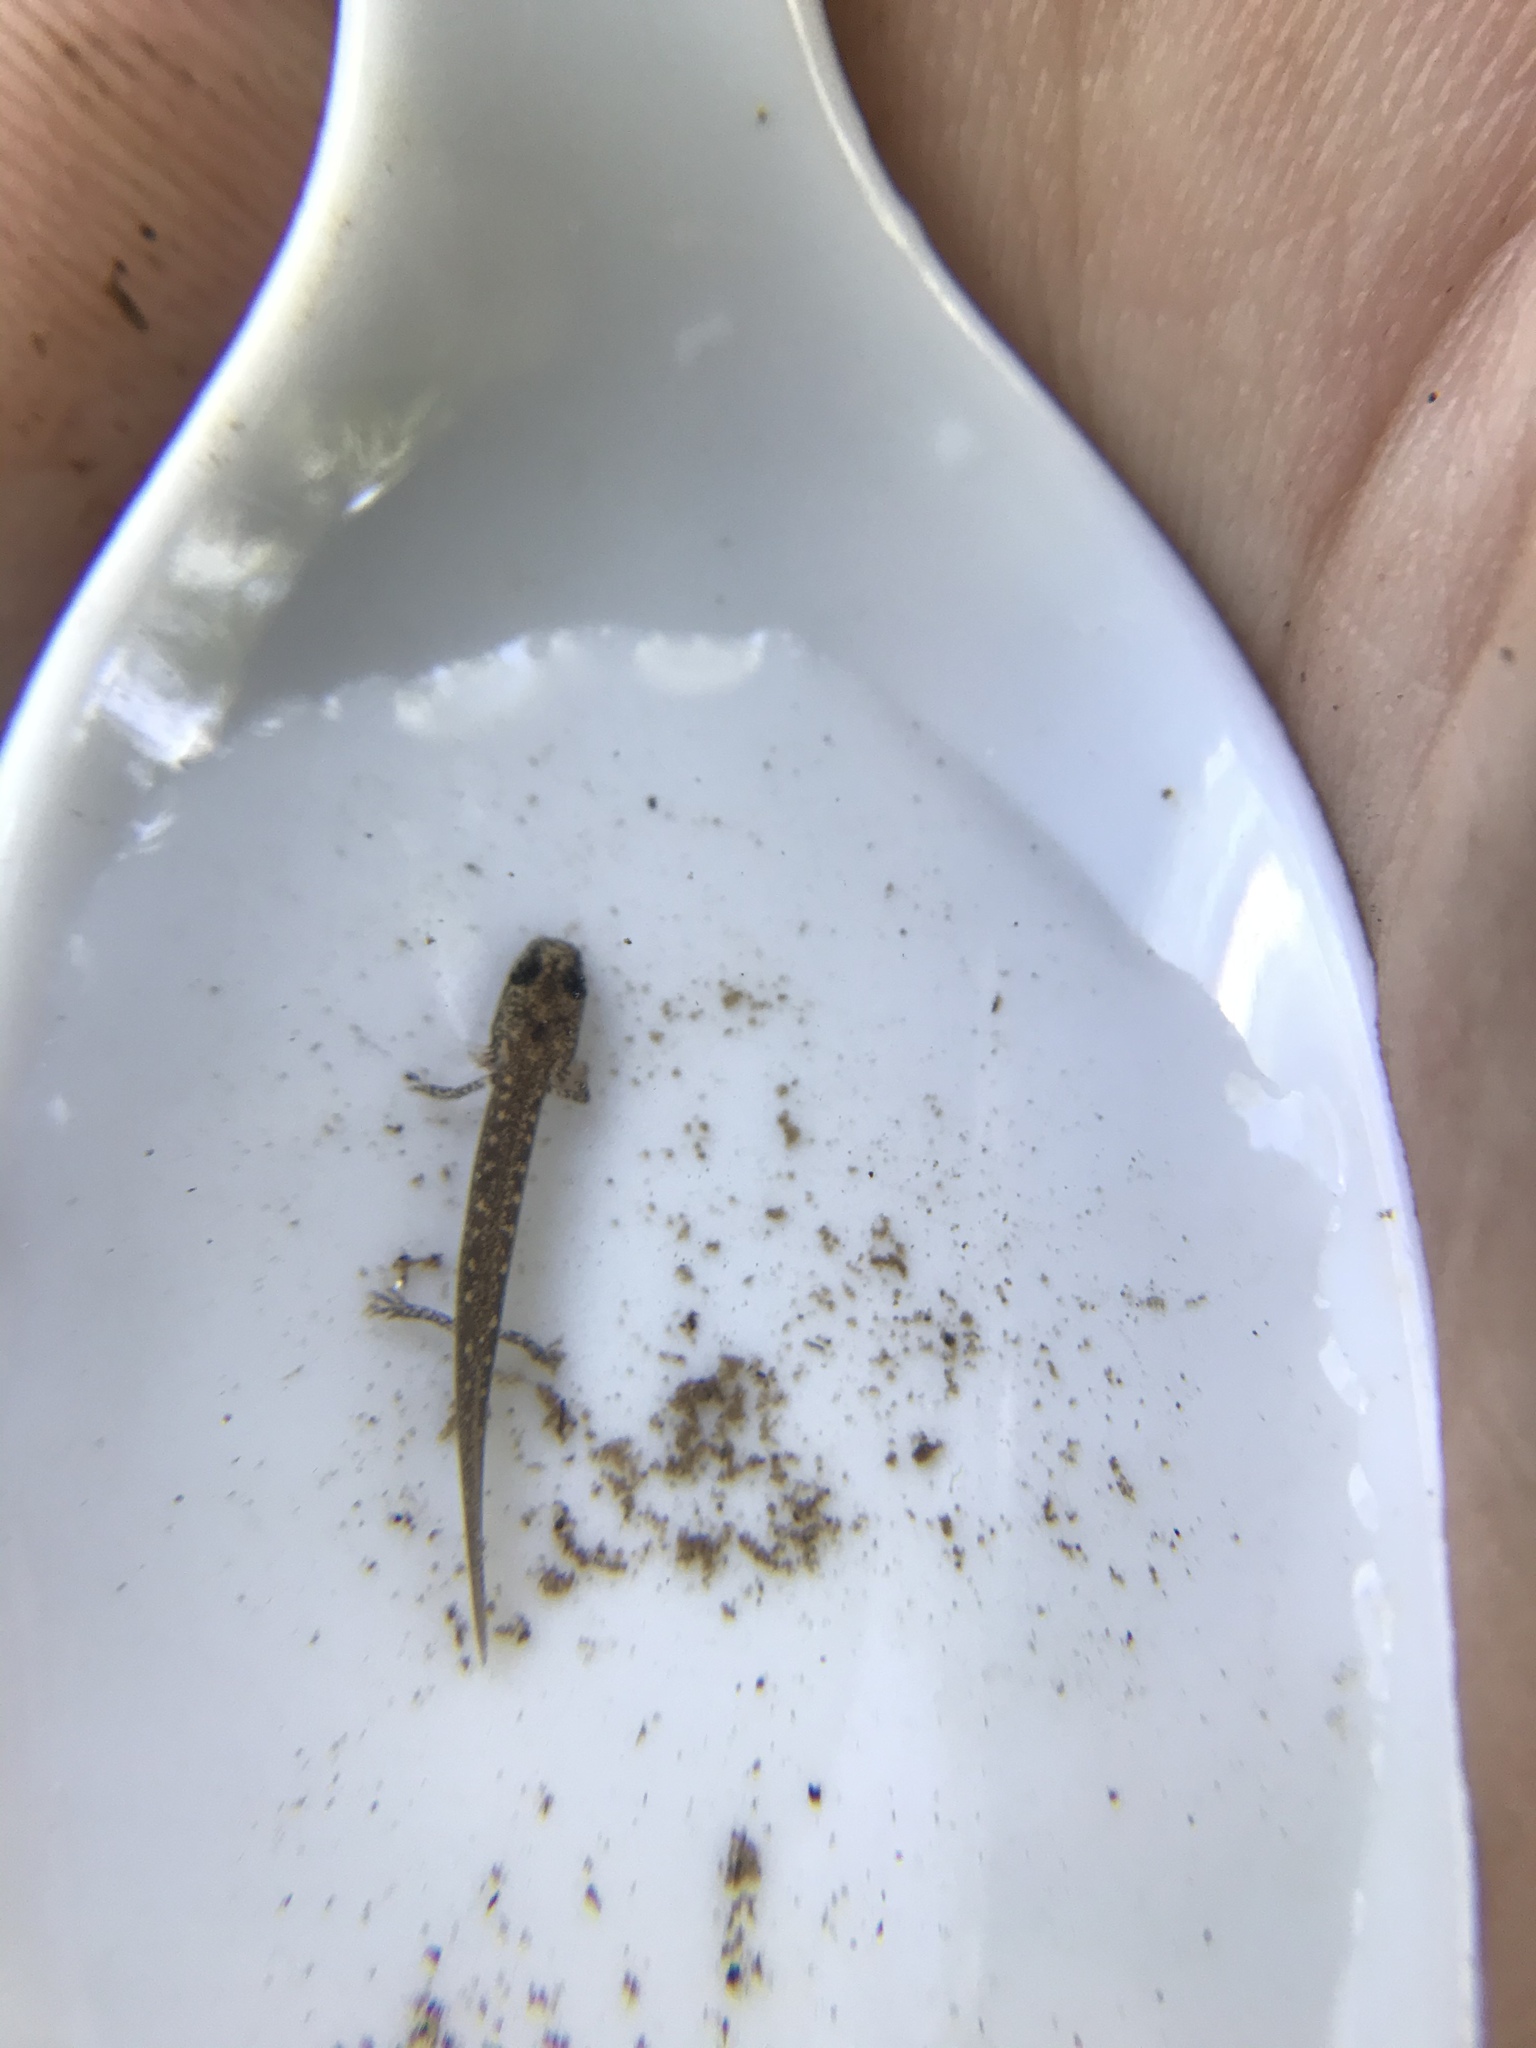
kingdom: Animalia
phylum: Chordata
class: Amphibia
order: Caudata
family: Plethodontidae
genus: Eurycea
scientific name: Eurycea bislineata
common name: Northern two-lined salamander
